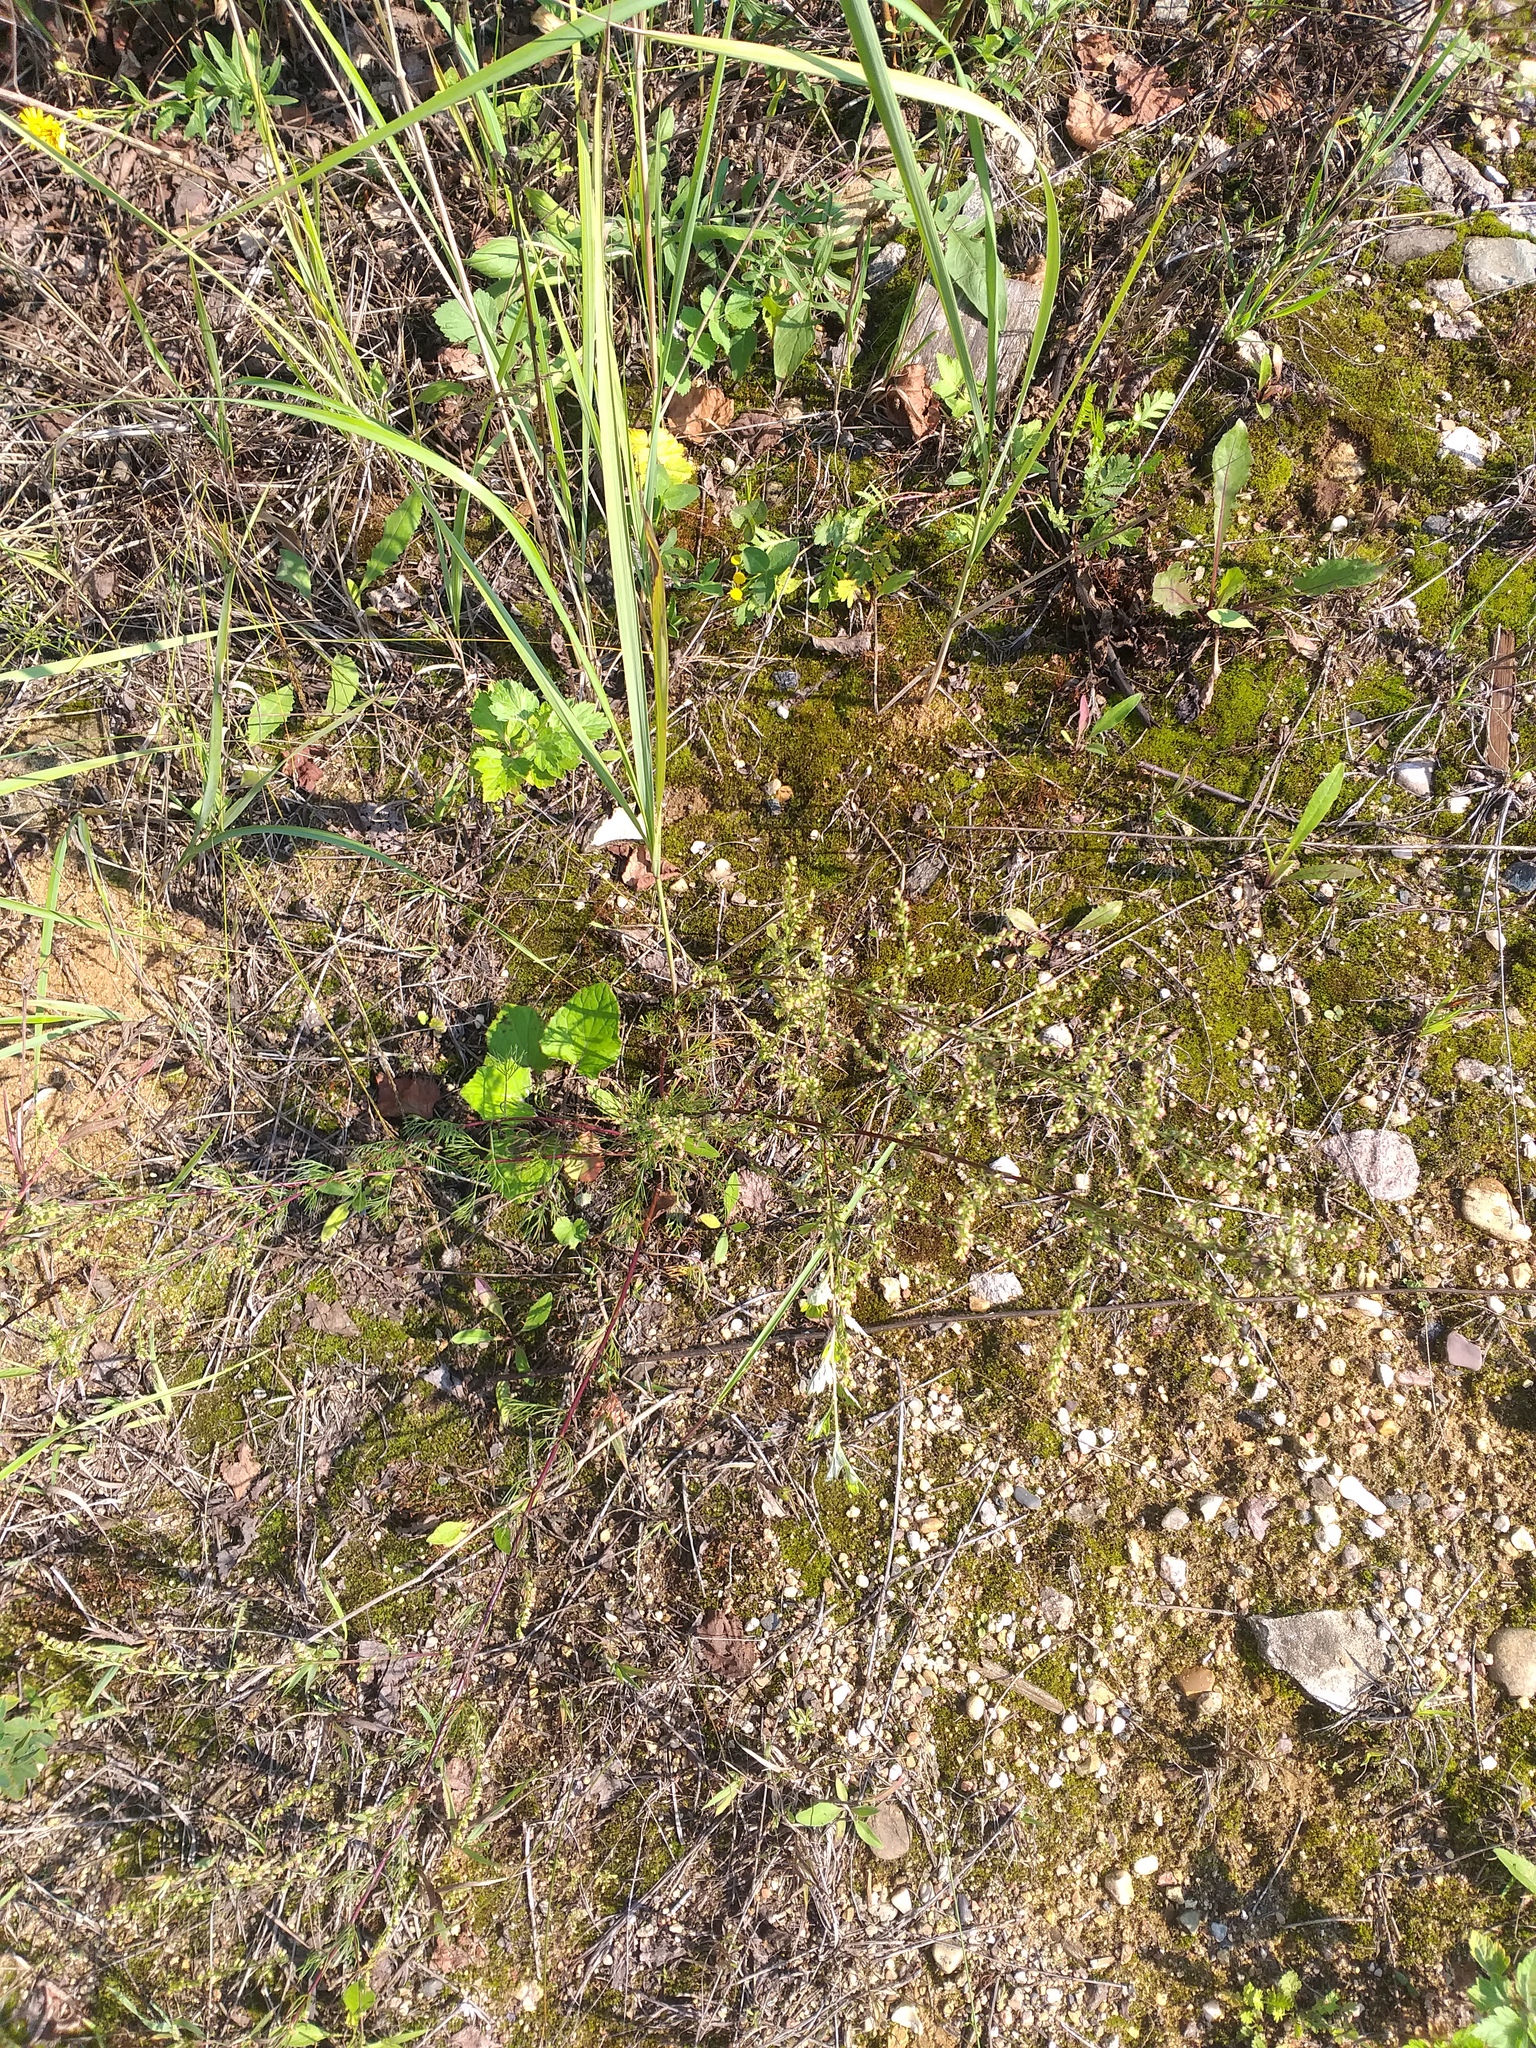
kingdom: Plantae
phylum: Tracheophyta
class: Magnoliopsida
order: Asterales
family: Asteraceae
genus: Artemisia
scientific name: Artemisia campestris
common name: Field wormwood
